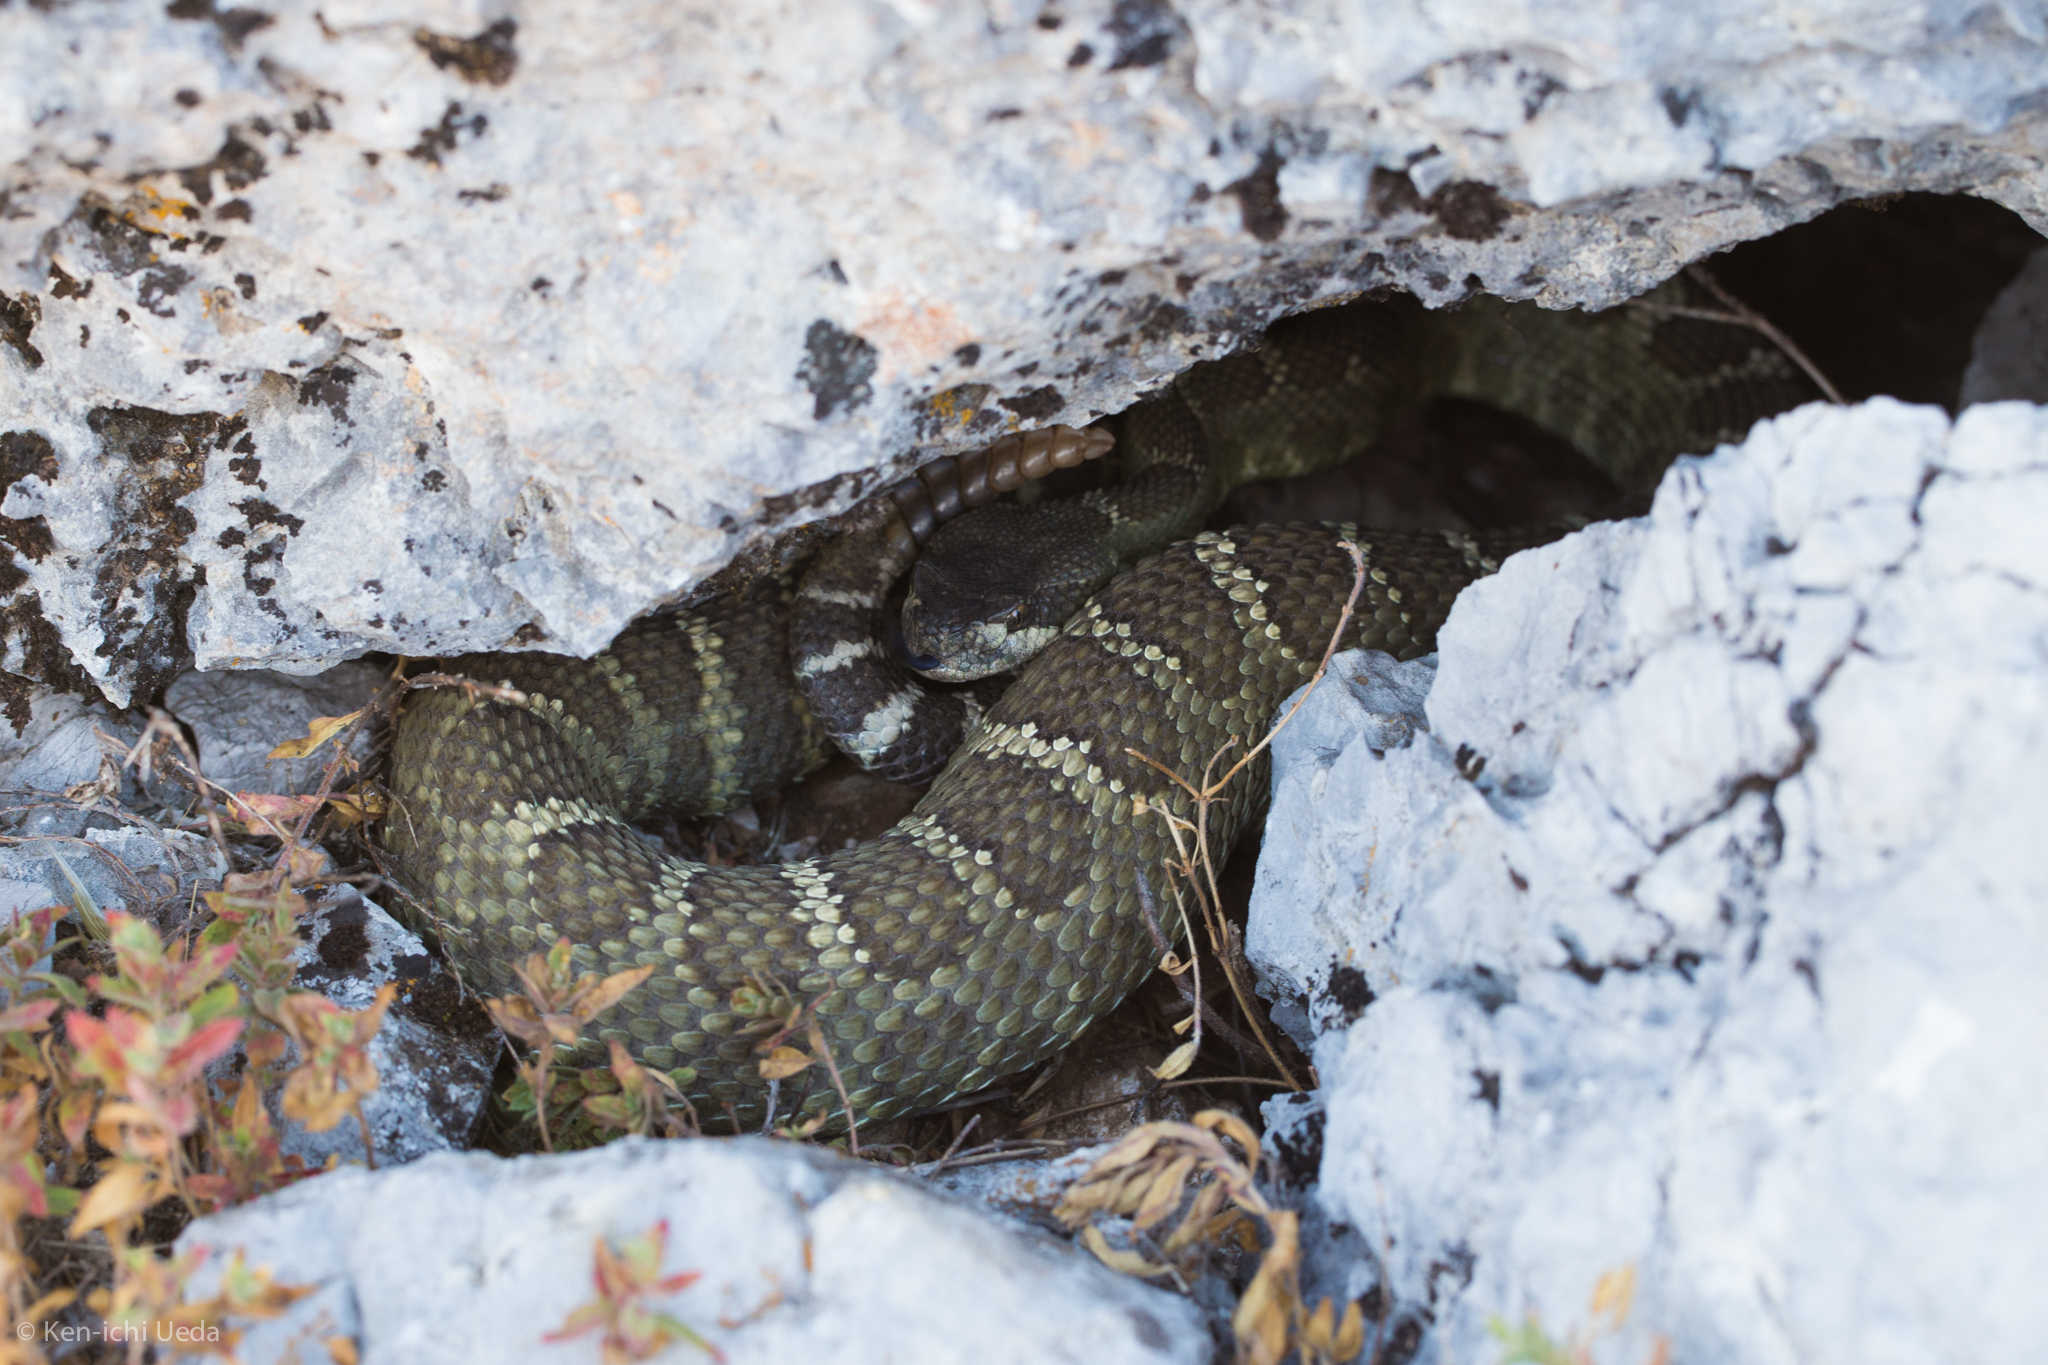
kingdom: Animalia
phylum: Chordata
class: Squamata
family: Viperidae
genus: Crotalus
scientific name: Crotalus oreganus
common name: Abyssus
